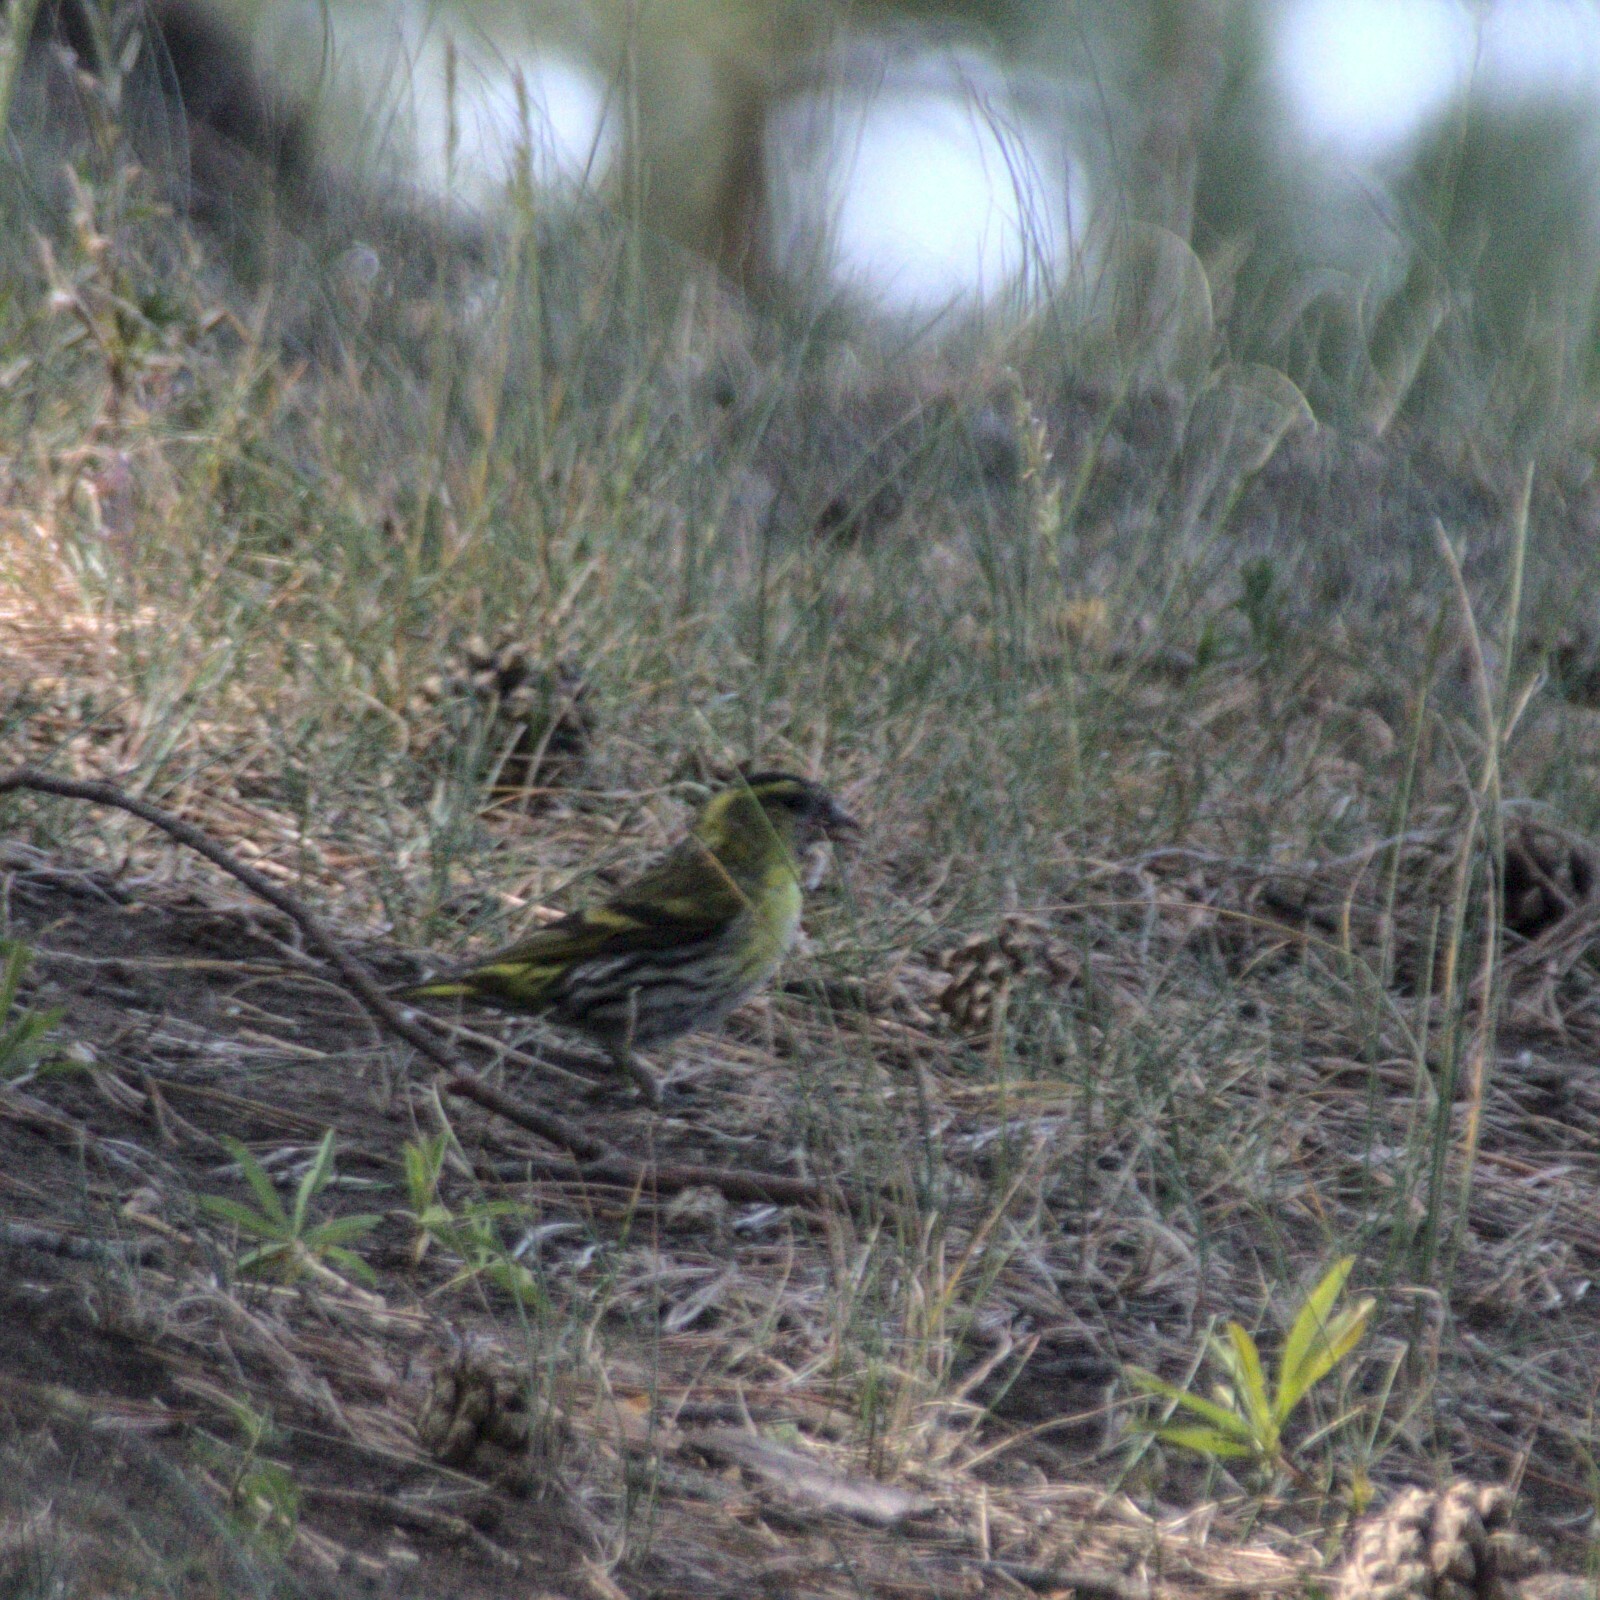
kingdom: Animalia
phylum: Chordata
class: Aves
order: Passeriformes
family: Fringillidae
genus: Spinus
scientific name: Spinus spinus
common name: Eurasian siskin
